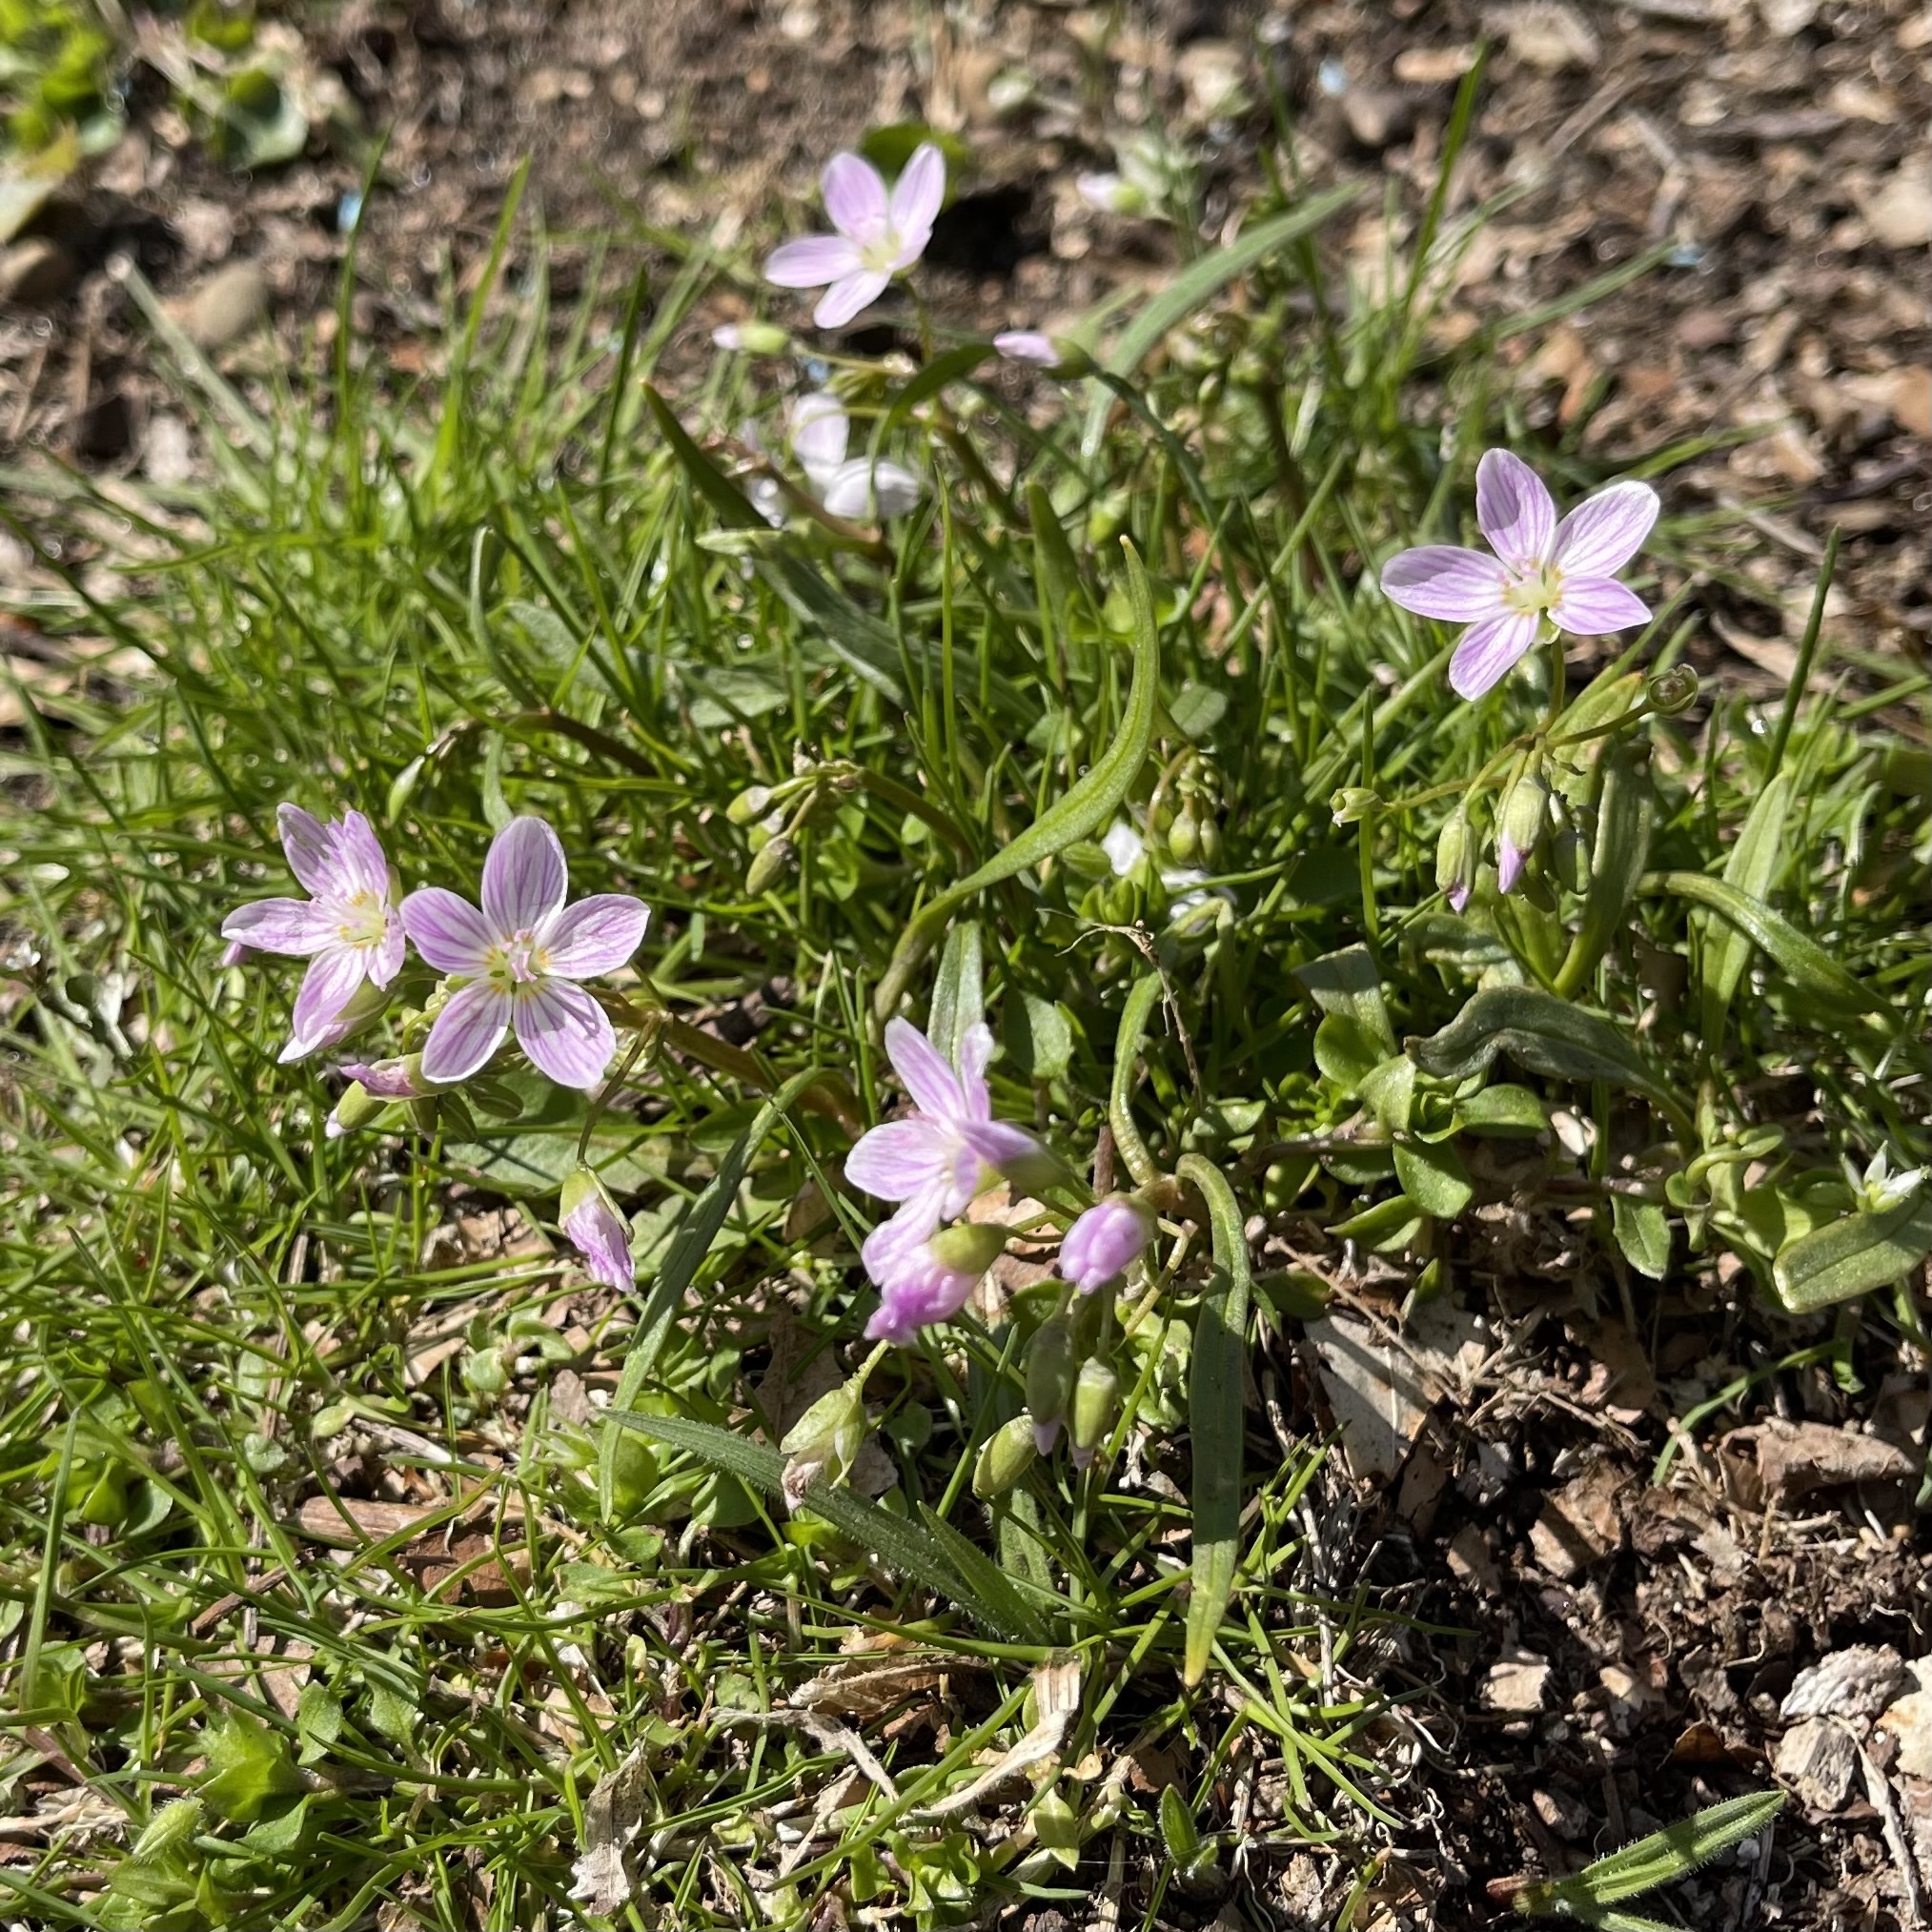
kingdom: Plantae
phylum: Tracheophyta
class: Magnoliopsida
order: Caryophyllales
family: Montiaceae
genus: Claytonia
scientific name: Claytonia virginica
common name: Virginia springbeauty
